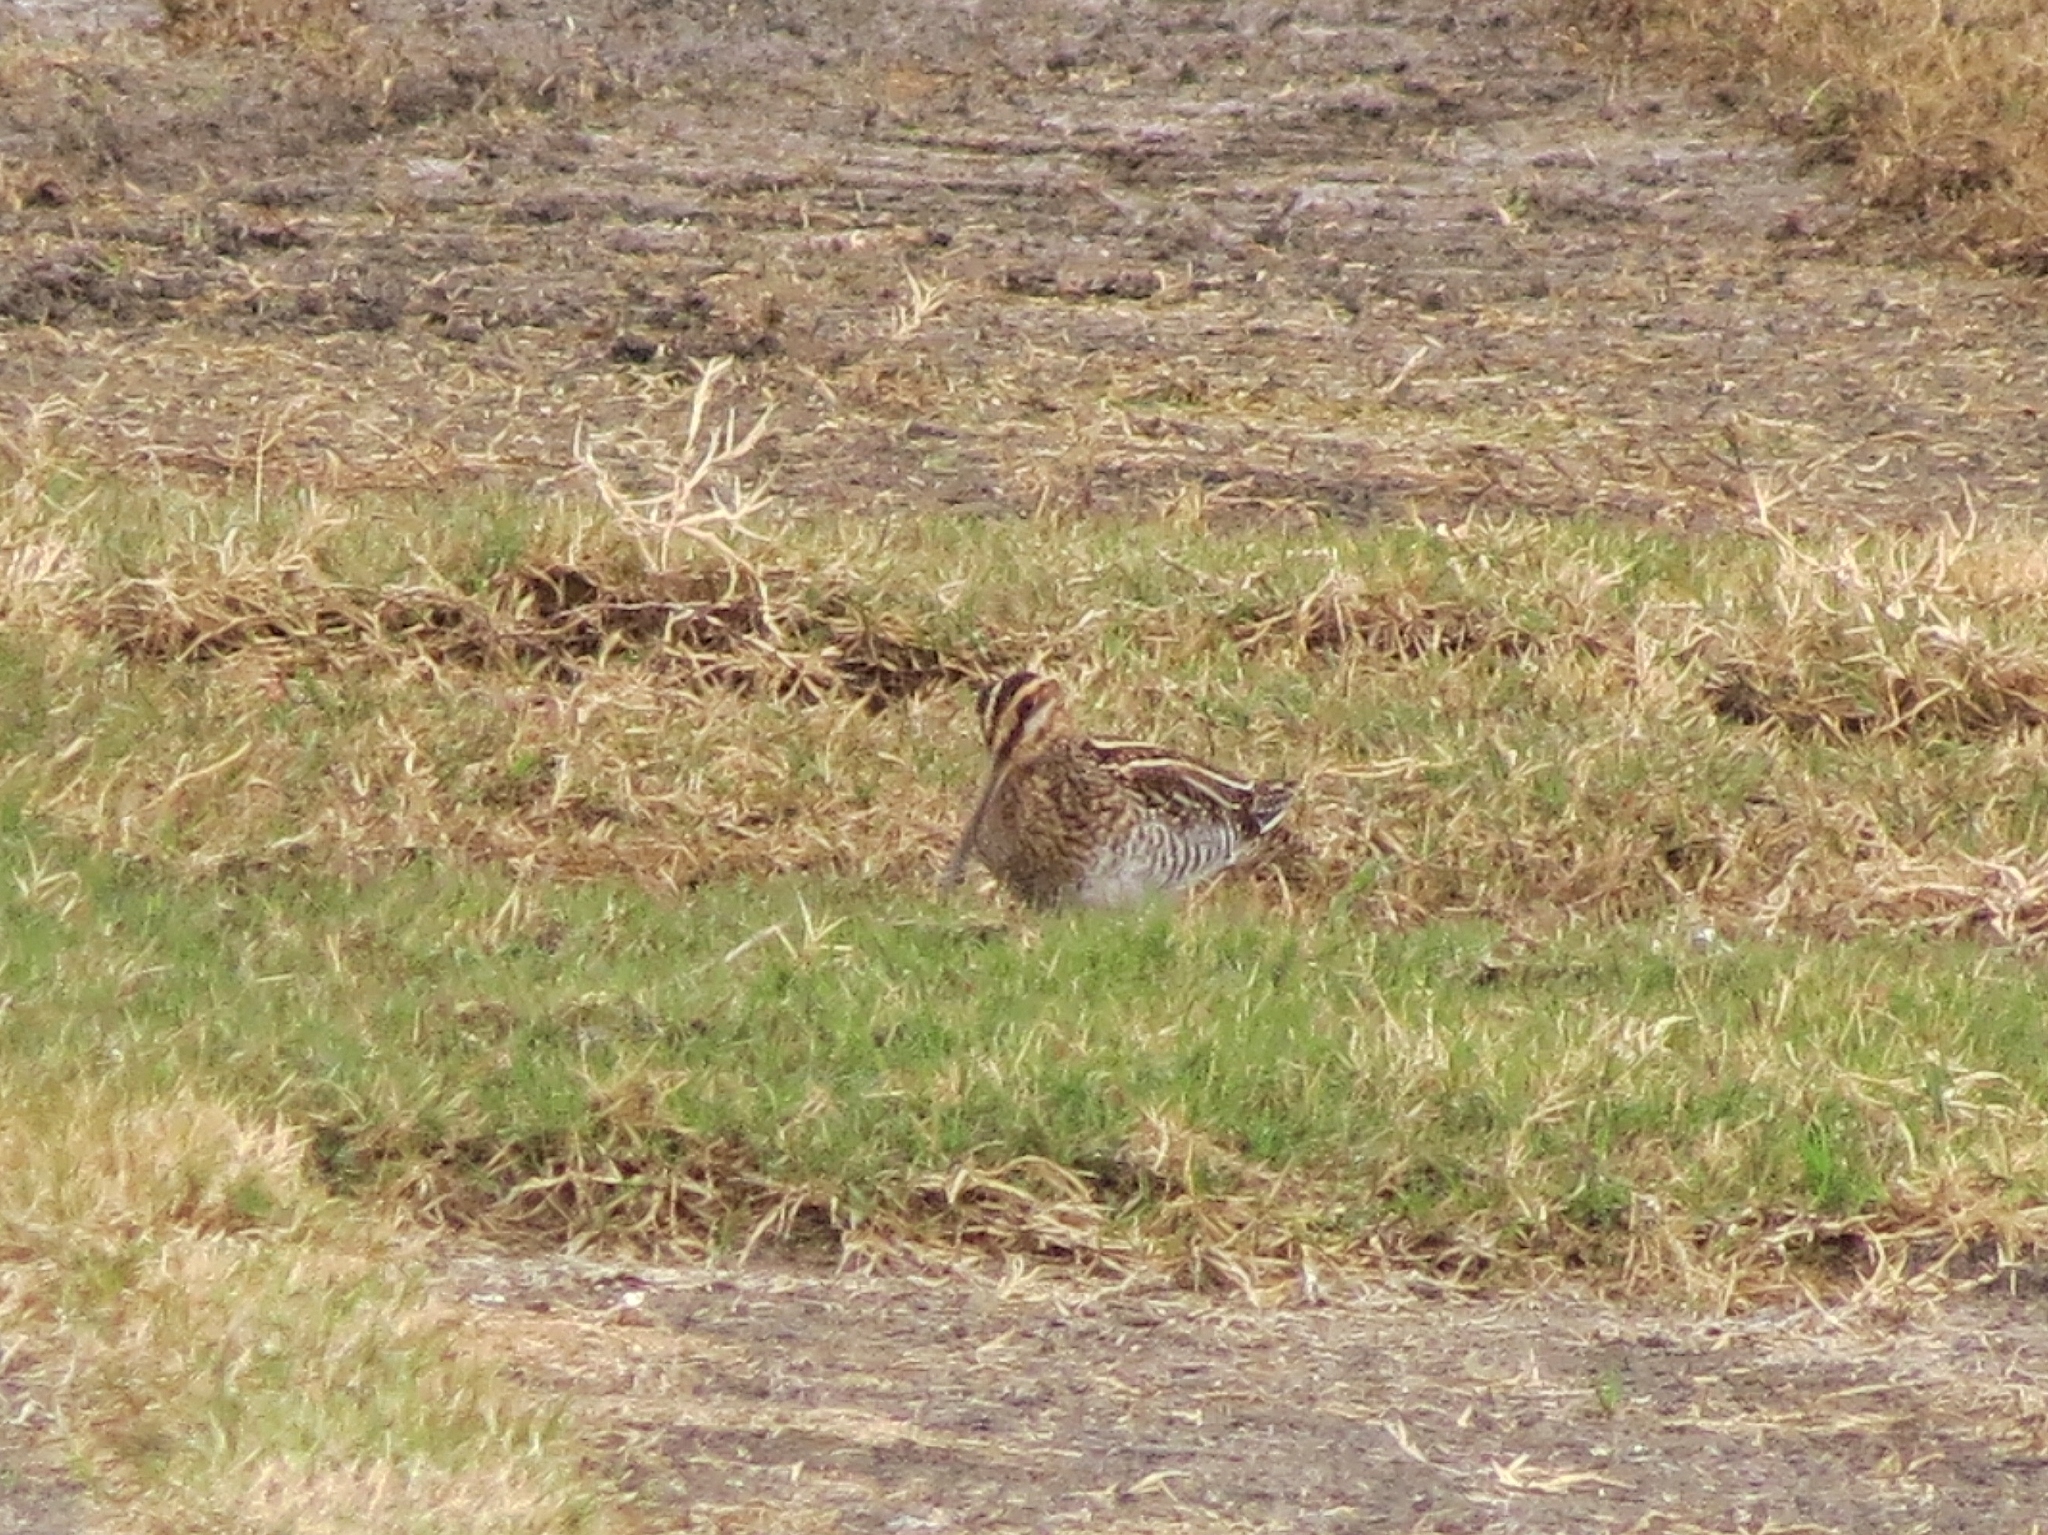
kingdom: Animalia
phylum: Chordata
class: Aves
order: Charadriiformes
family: Scolopacidae
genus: Gallinago
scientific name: Gallinago delicata
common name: Wilson's snipe
